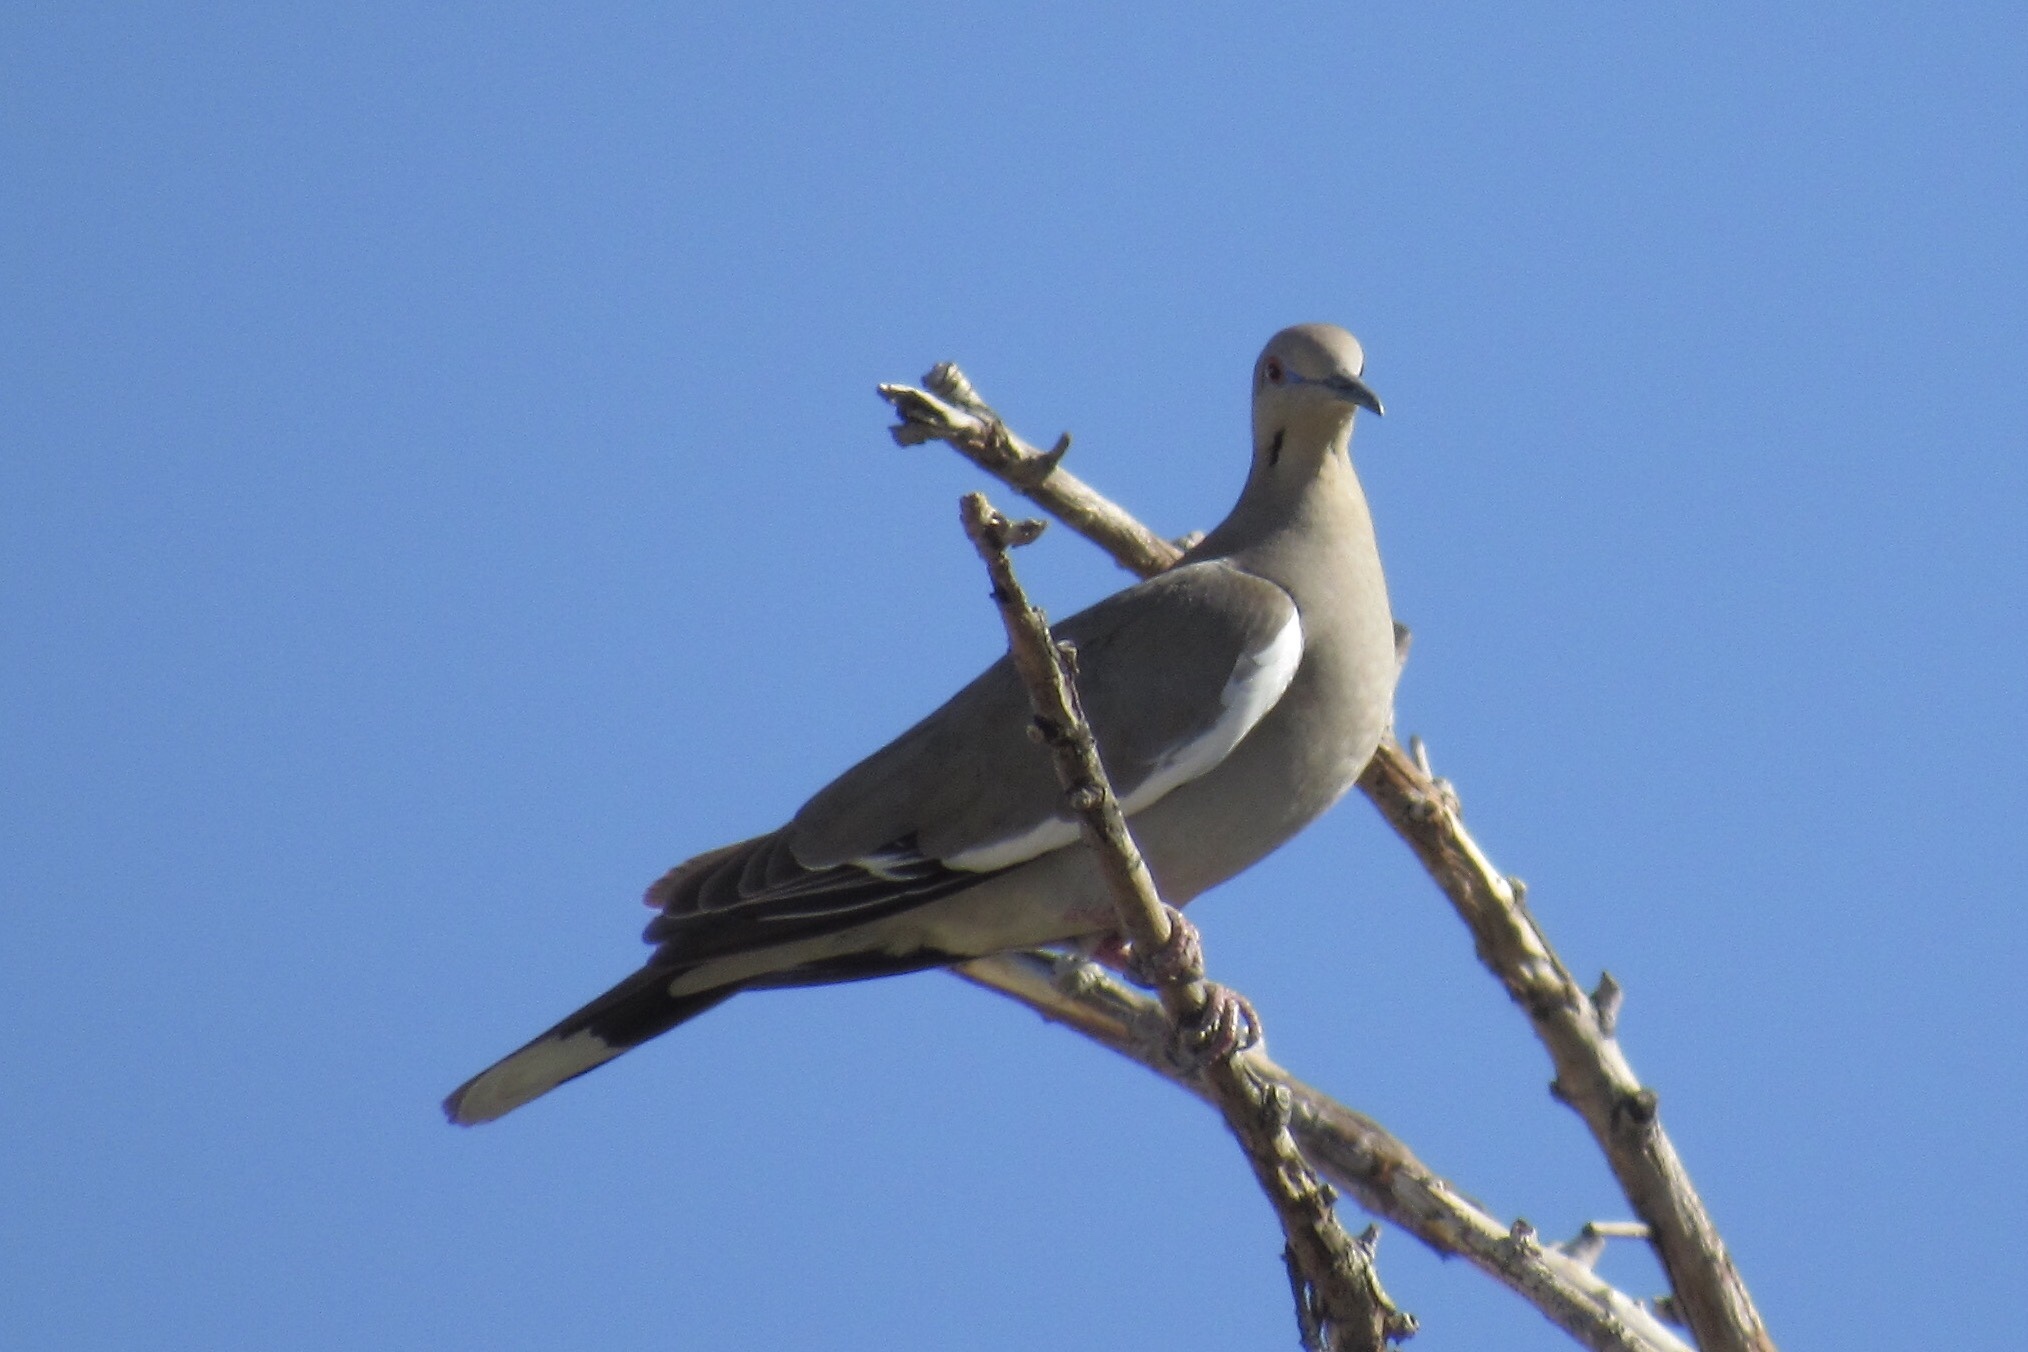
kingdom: Animalia
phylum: Chordata
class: Aves
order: Columbiformes
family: Columbidae
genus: Zenaida
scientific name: Zenaida asiatica
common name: White-winged dove
